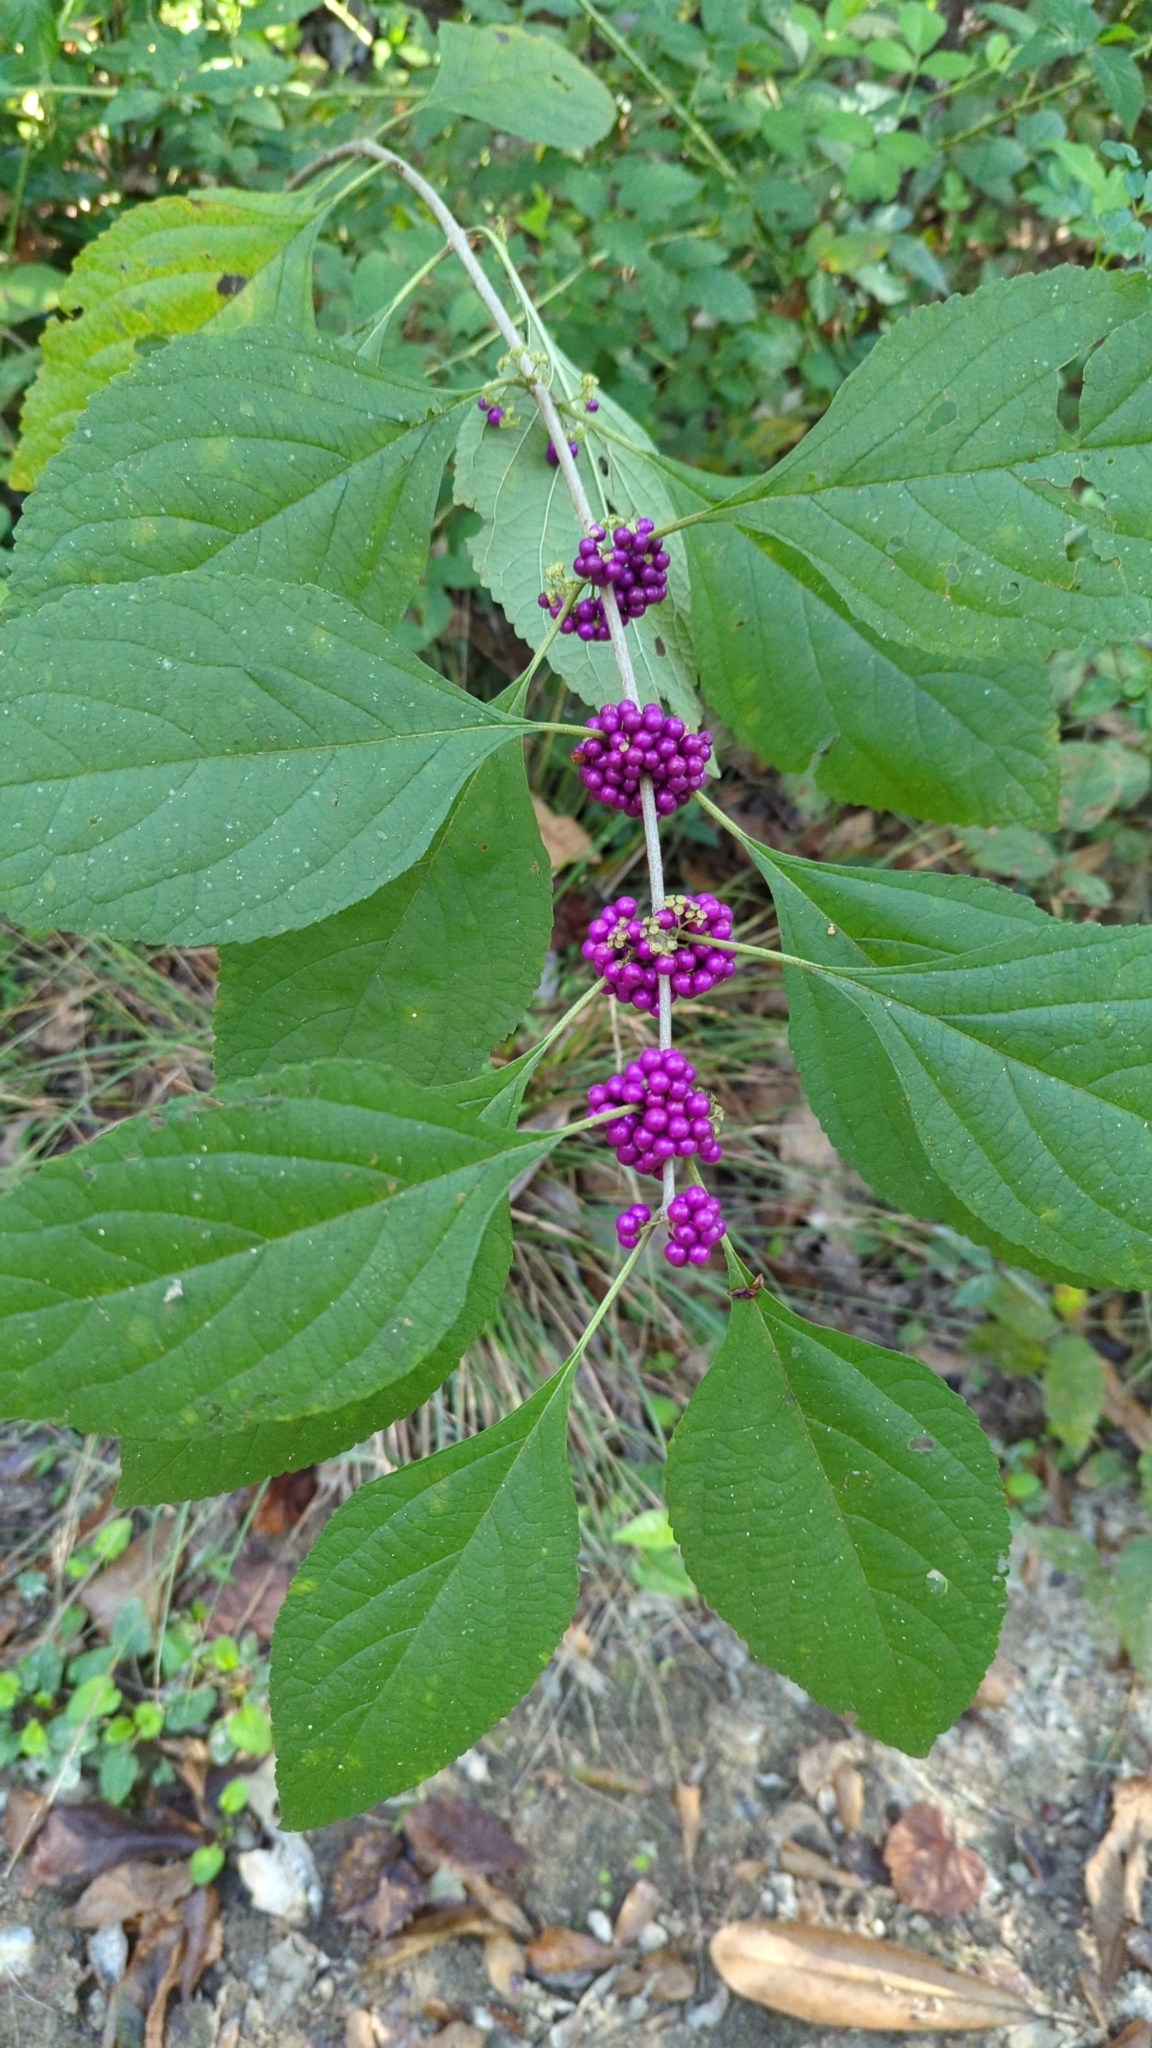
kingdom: Plantae
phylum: Tracheophyta
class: Magnoliopsida
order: Lamiales
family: Lamiaceae
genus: Callicarpa
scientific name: Callicarpa americana
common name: American beautyberry
